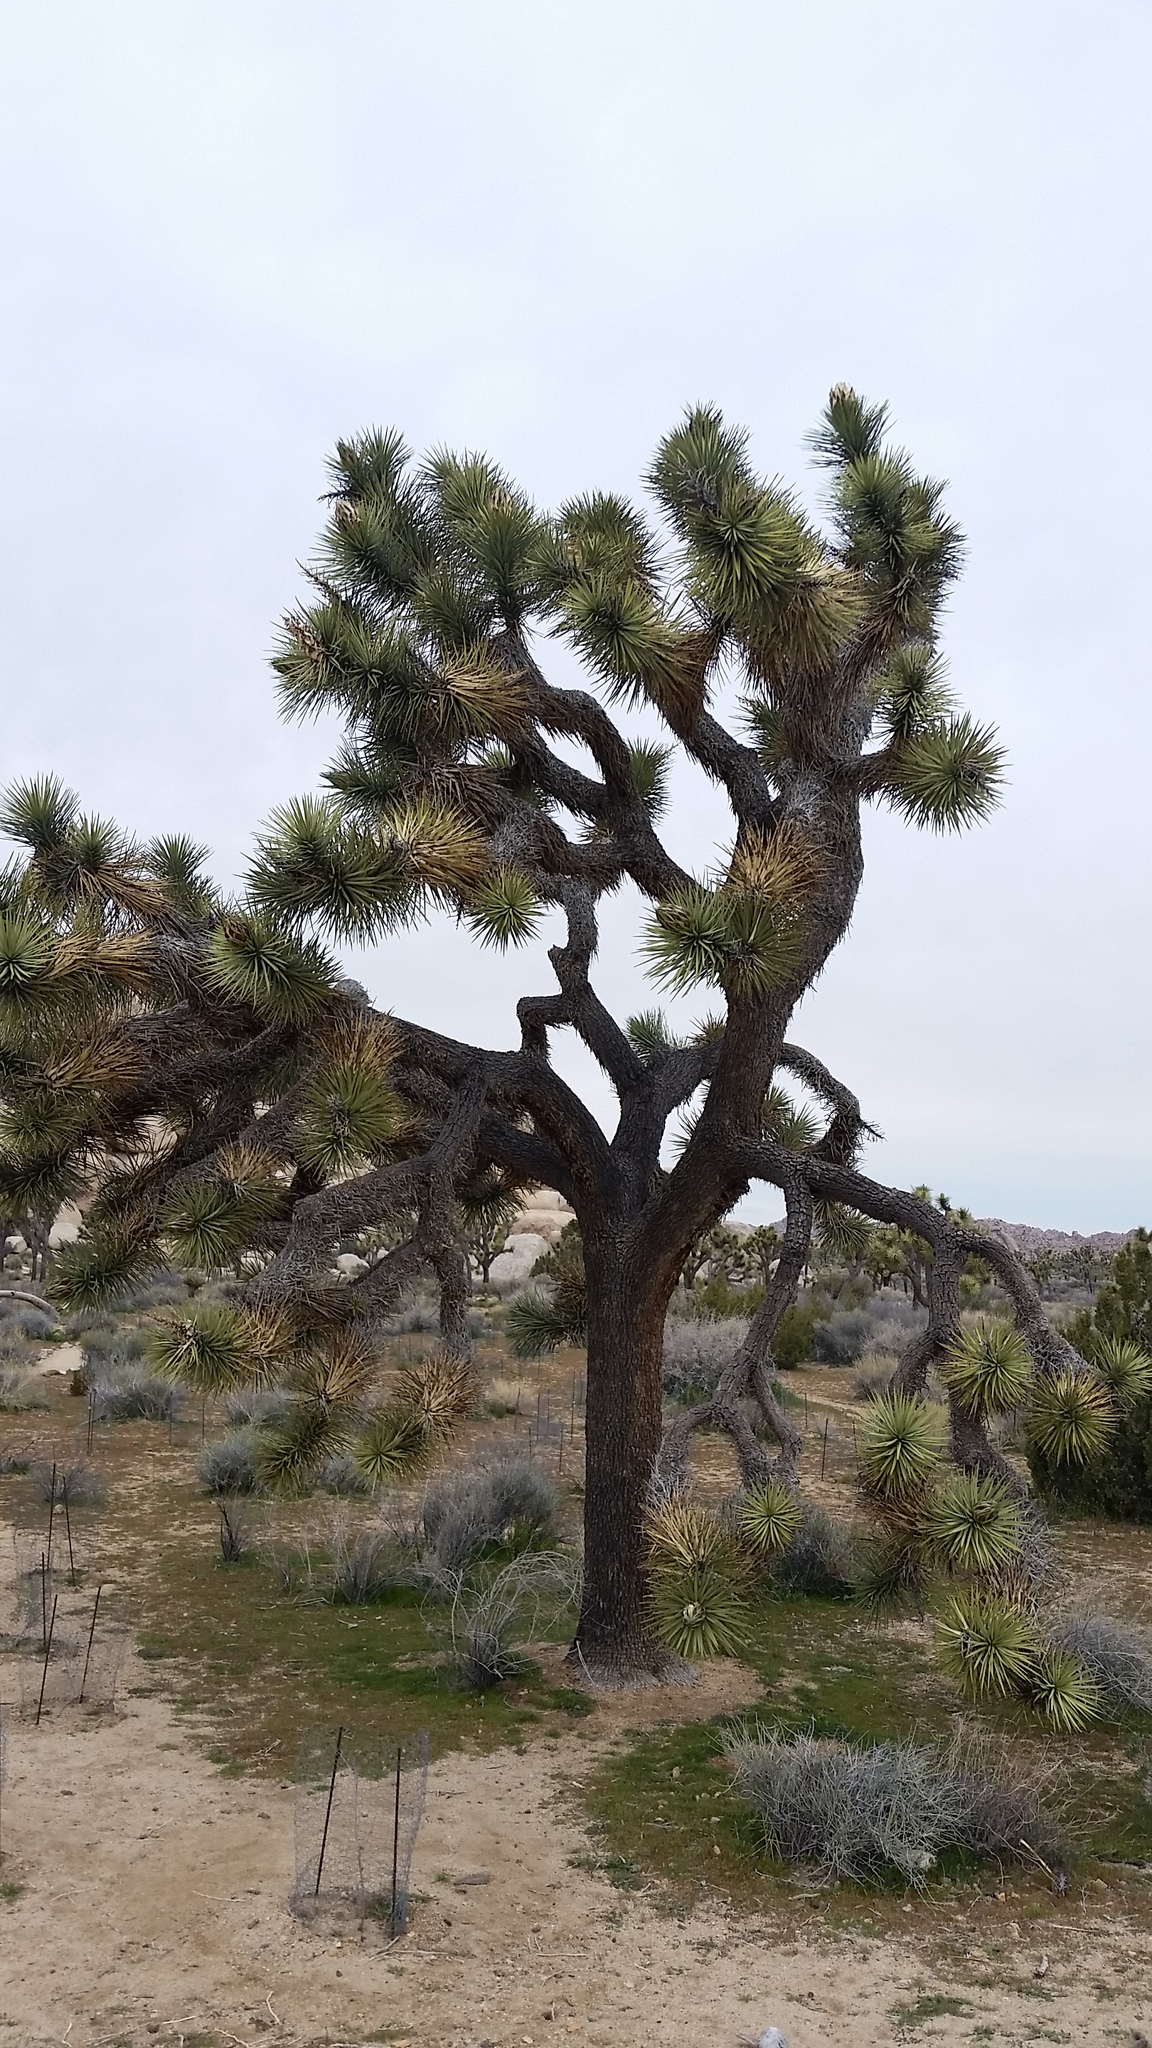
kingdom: Plantae
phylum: Tracheophyta
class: Liliopsida
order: Asparagales
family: Asparagaceae
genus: Yucca
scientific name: Yucca brevifolia
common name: Joshua tree
